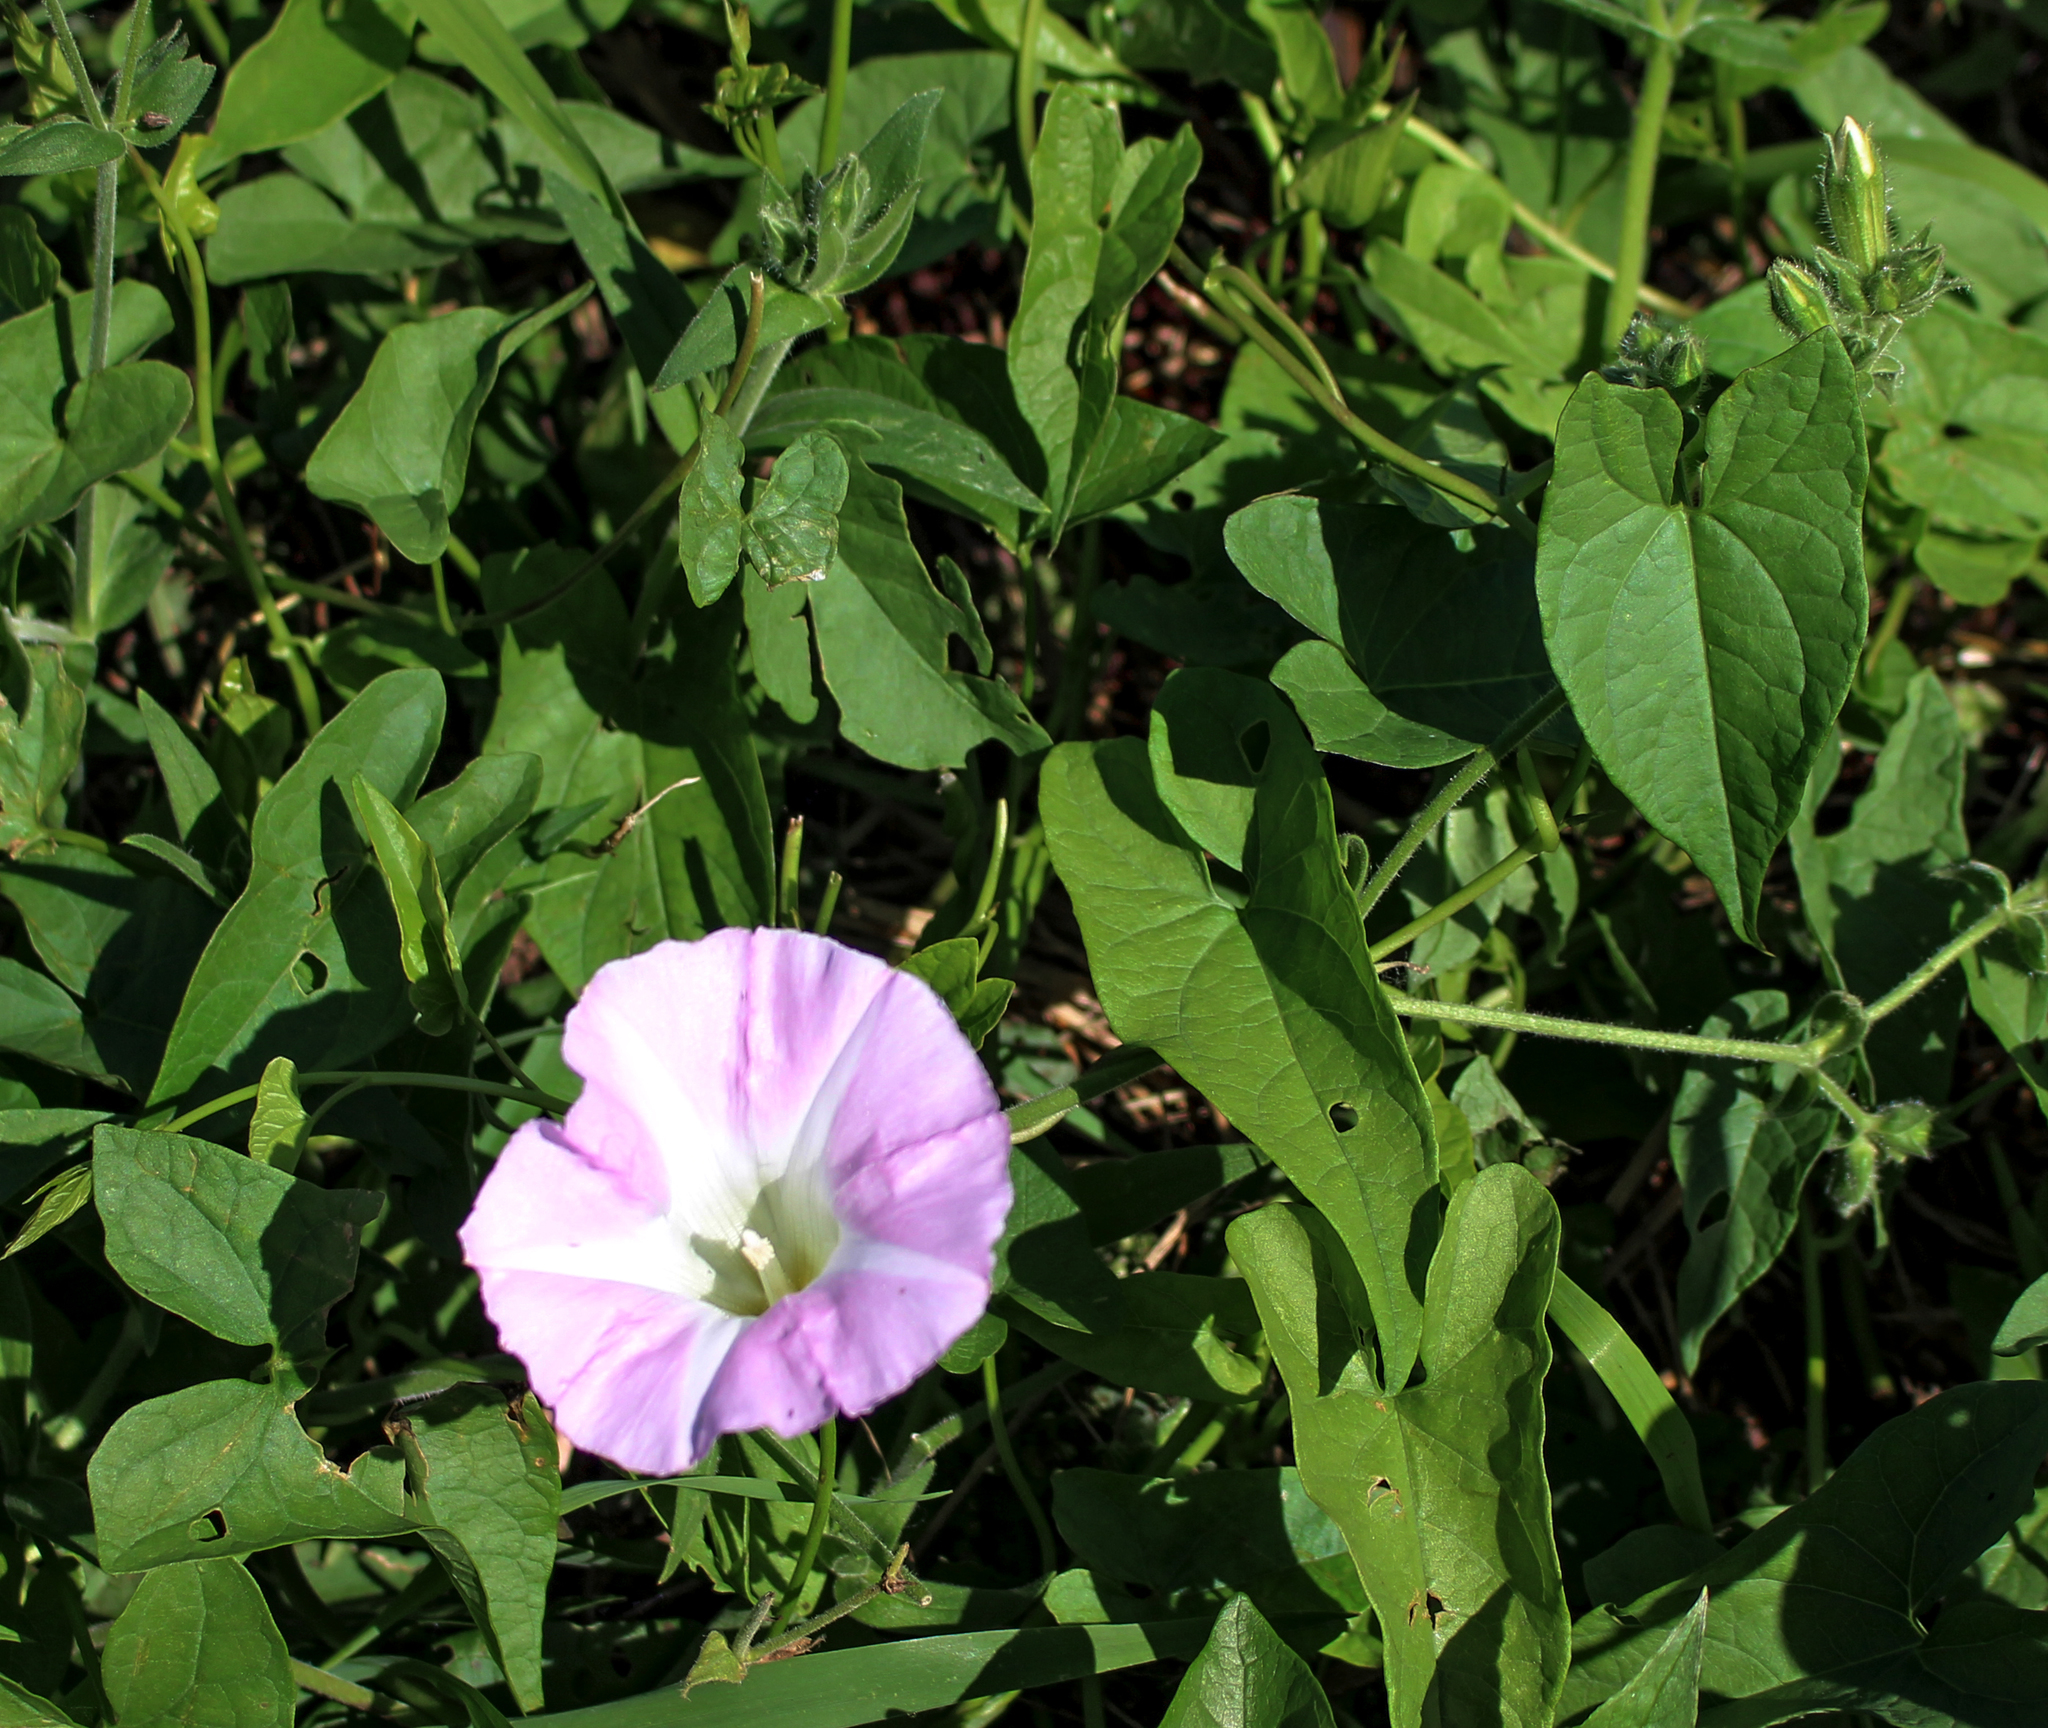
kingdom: Plantae
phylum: Tracheophyta
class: Magnoliopsida
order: Solanales
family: Convolvulaceae
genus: Calystegia
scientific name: Calystegia sepium
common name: Hedge bindweed
